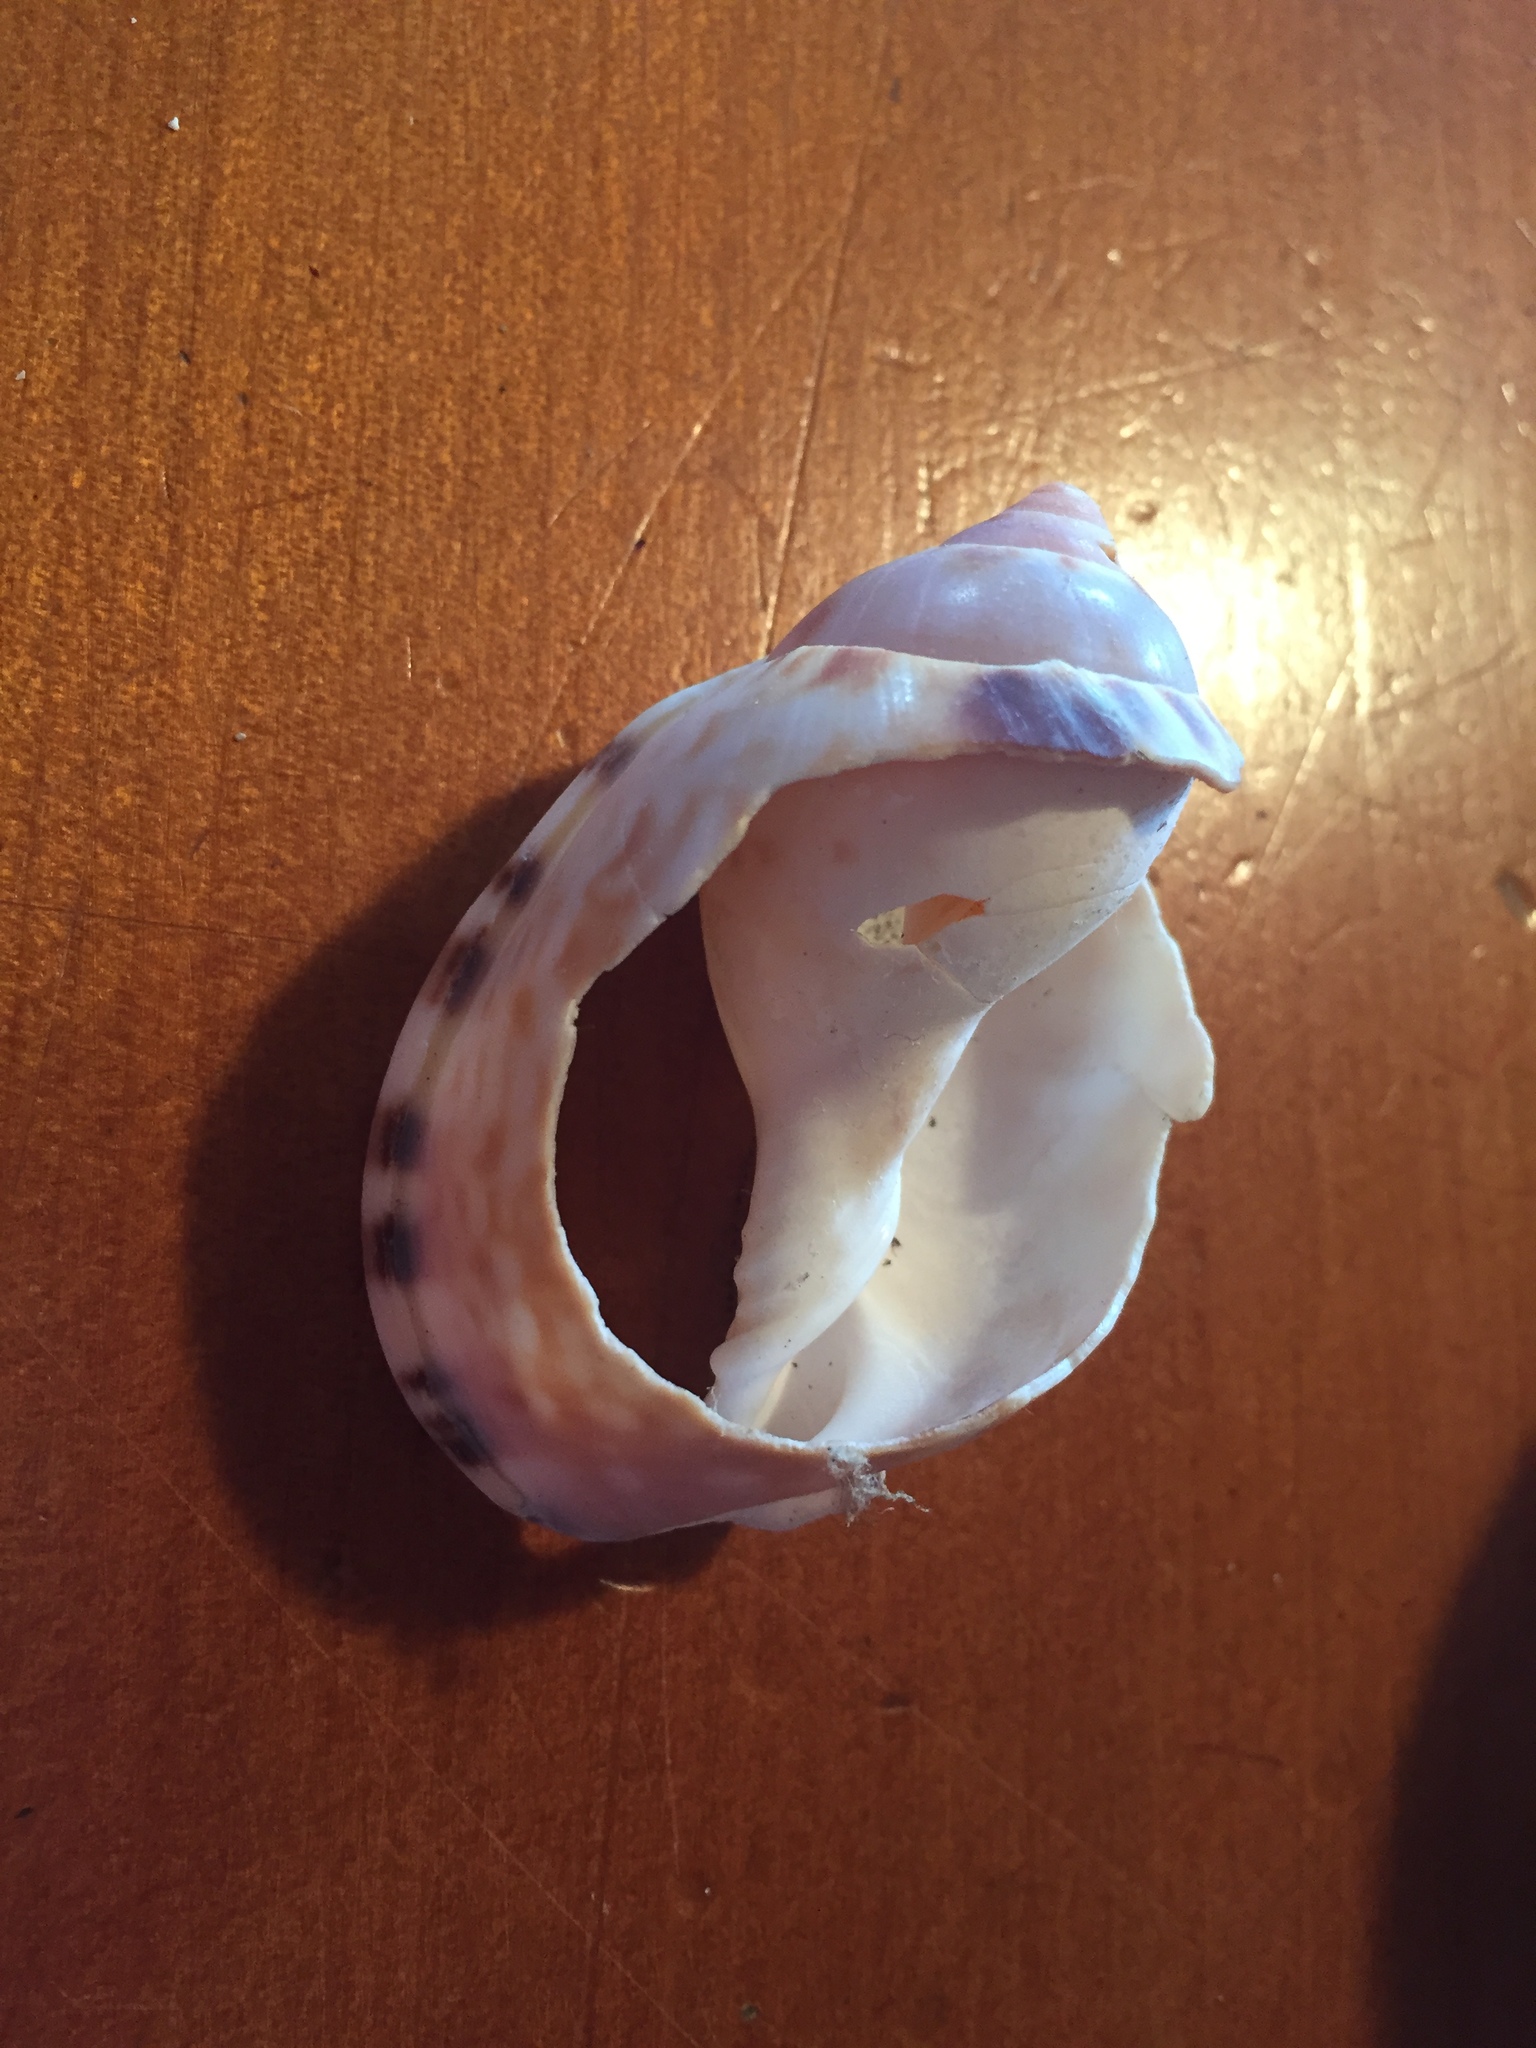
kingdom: Animalia
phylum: Mollusca
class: Gastropoda
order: Littorinimorpha
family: Cassidae
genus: Semicassis
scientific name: Semicassis labiata
